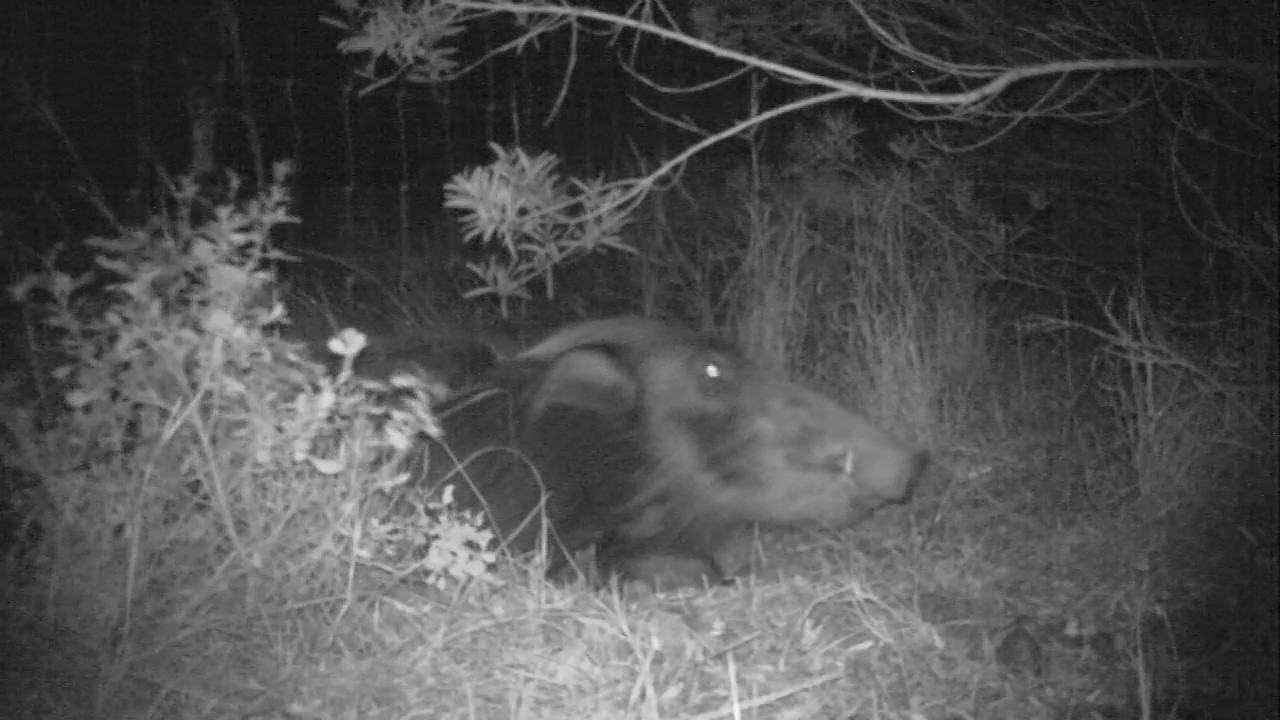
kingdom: Animalia
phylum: Chordata
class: Mammalia
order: Artiodactyla
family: Suidae
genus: Potamochoerus
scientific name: Potamochoerus larvatus
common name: Bushpig
